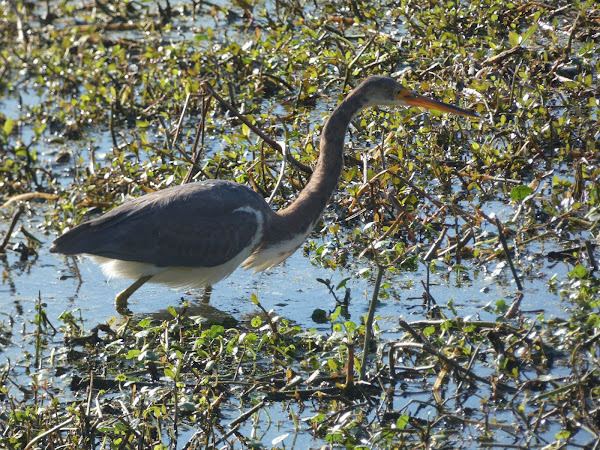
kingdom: Animalia
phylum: Chordata
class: Aves
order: Pelecaniformes
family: Ardeidae
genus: Egretta
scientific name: Egretta tricolor
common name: Tricolored heron
